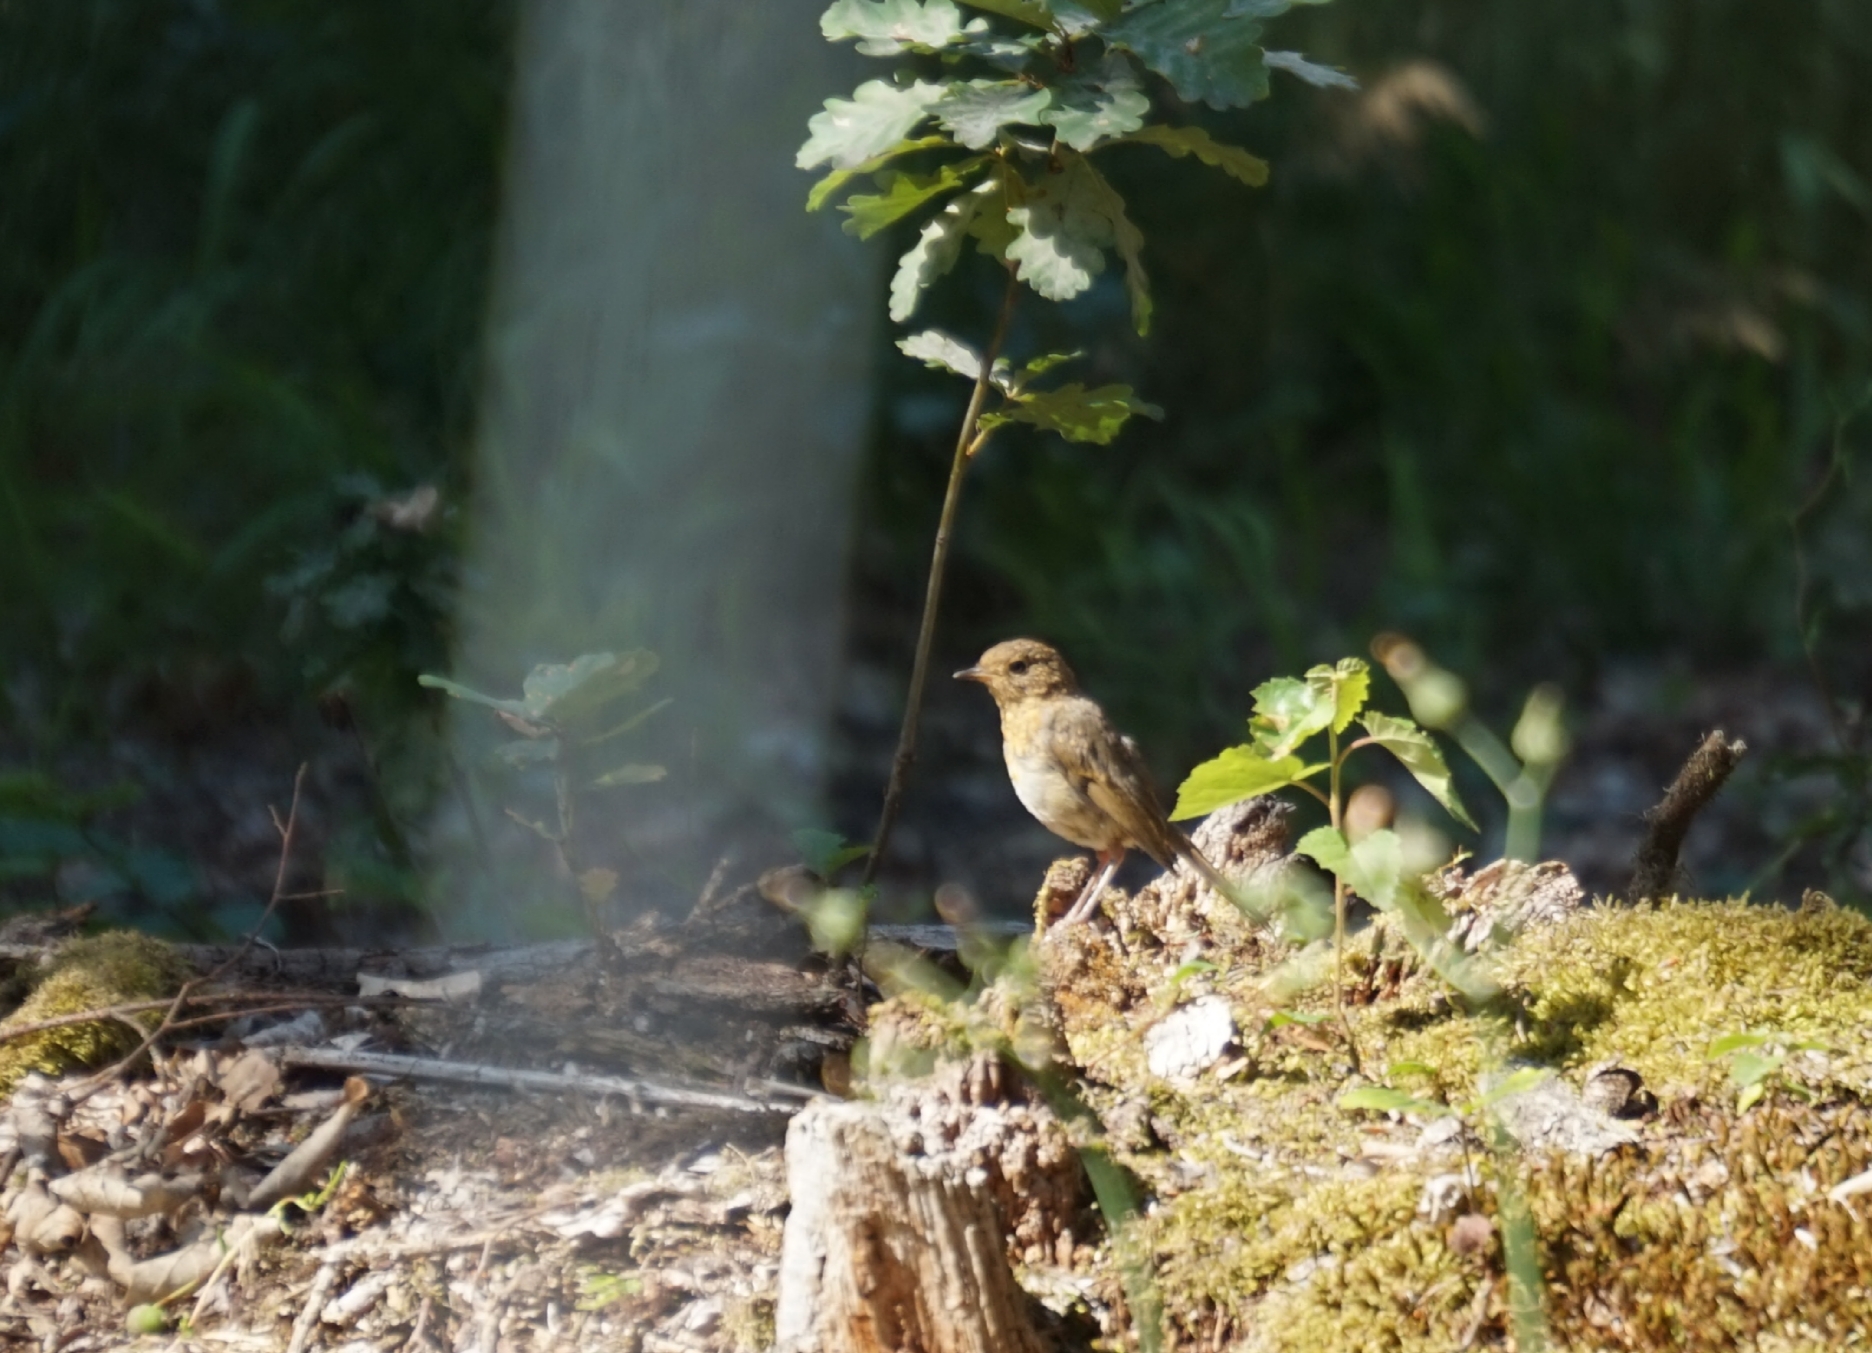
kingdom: Animalia
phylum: Chordata
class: Aves
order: Passeriformes
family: Muscicapidae
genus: Erithacus
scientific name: Erithacus rubecula
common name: European robin
